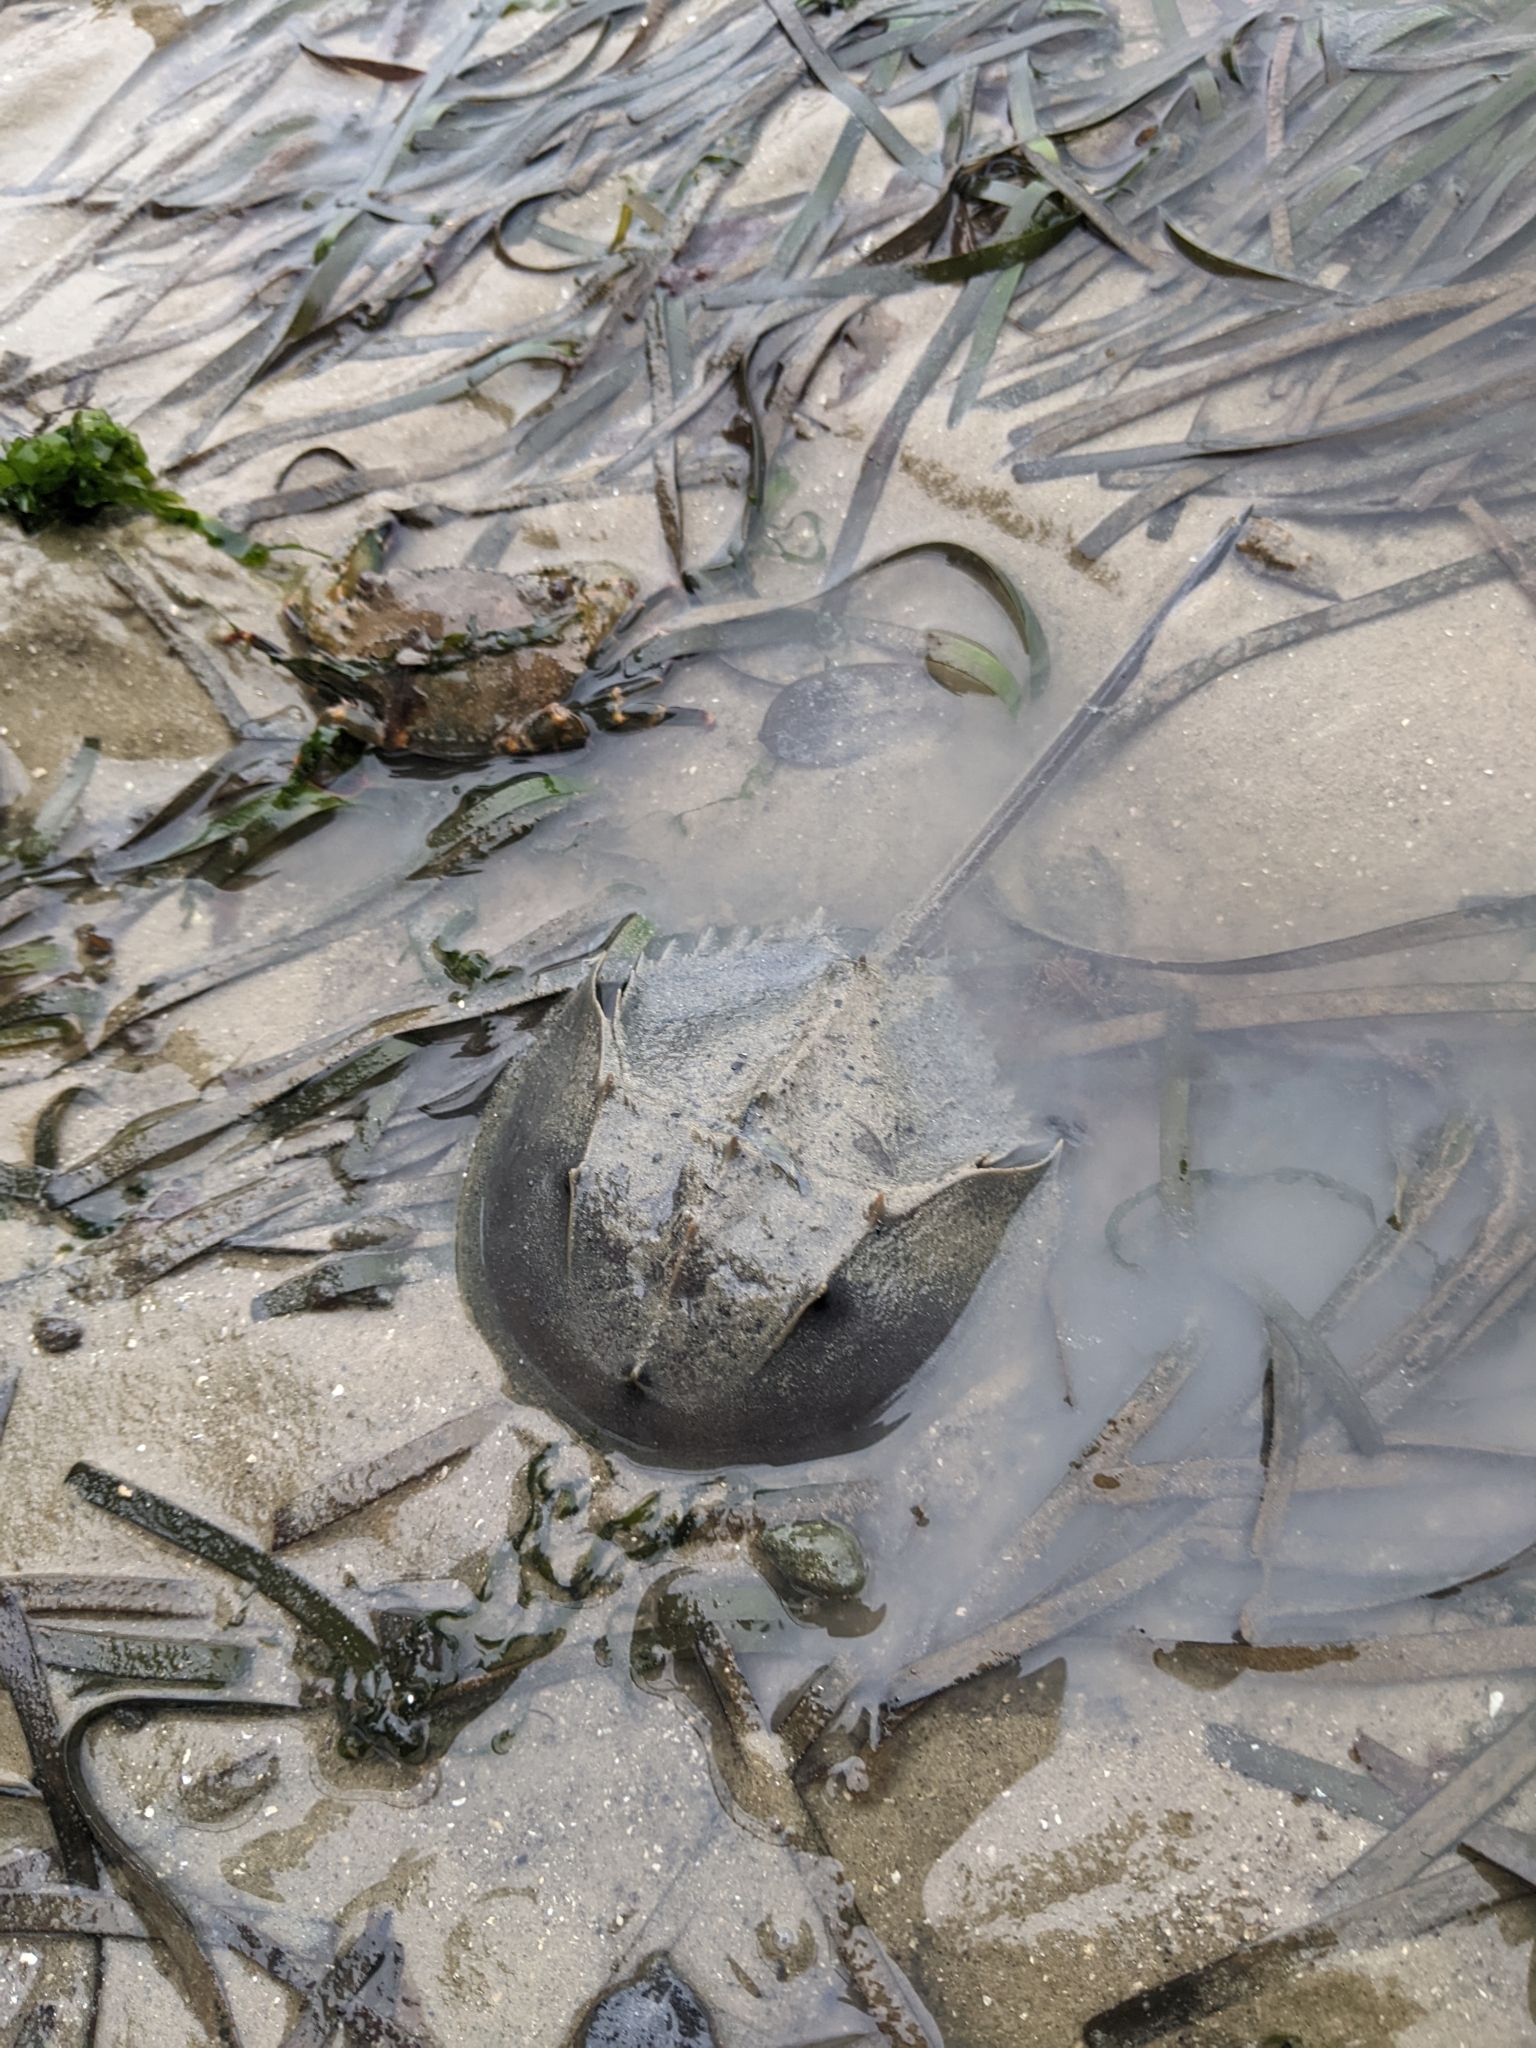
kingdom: Animalia
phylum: Arthropoda
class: Merostomata
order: Xiphosurida
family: Limulidae
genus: Tachypleus
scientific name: Tachypleus gigas
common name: Coastal horseshoe crab
